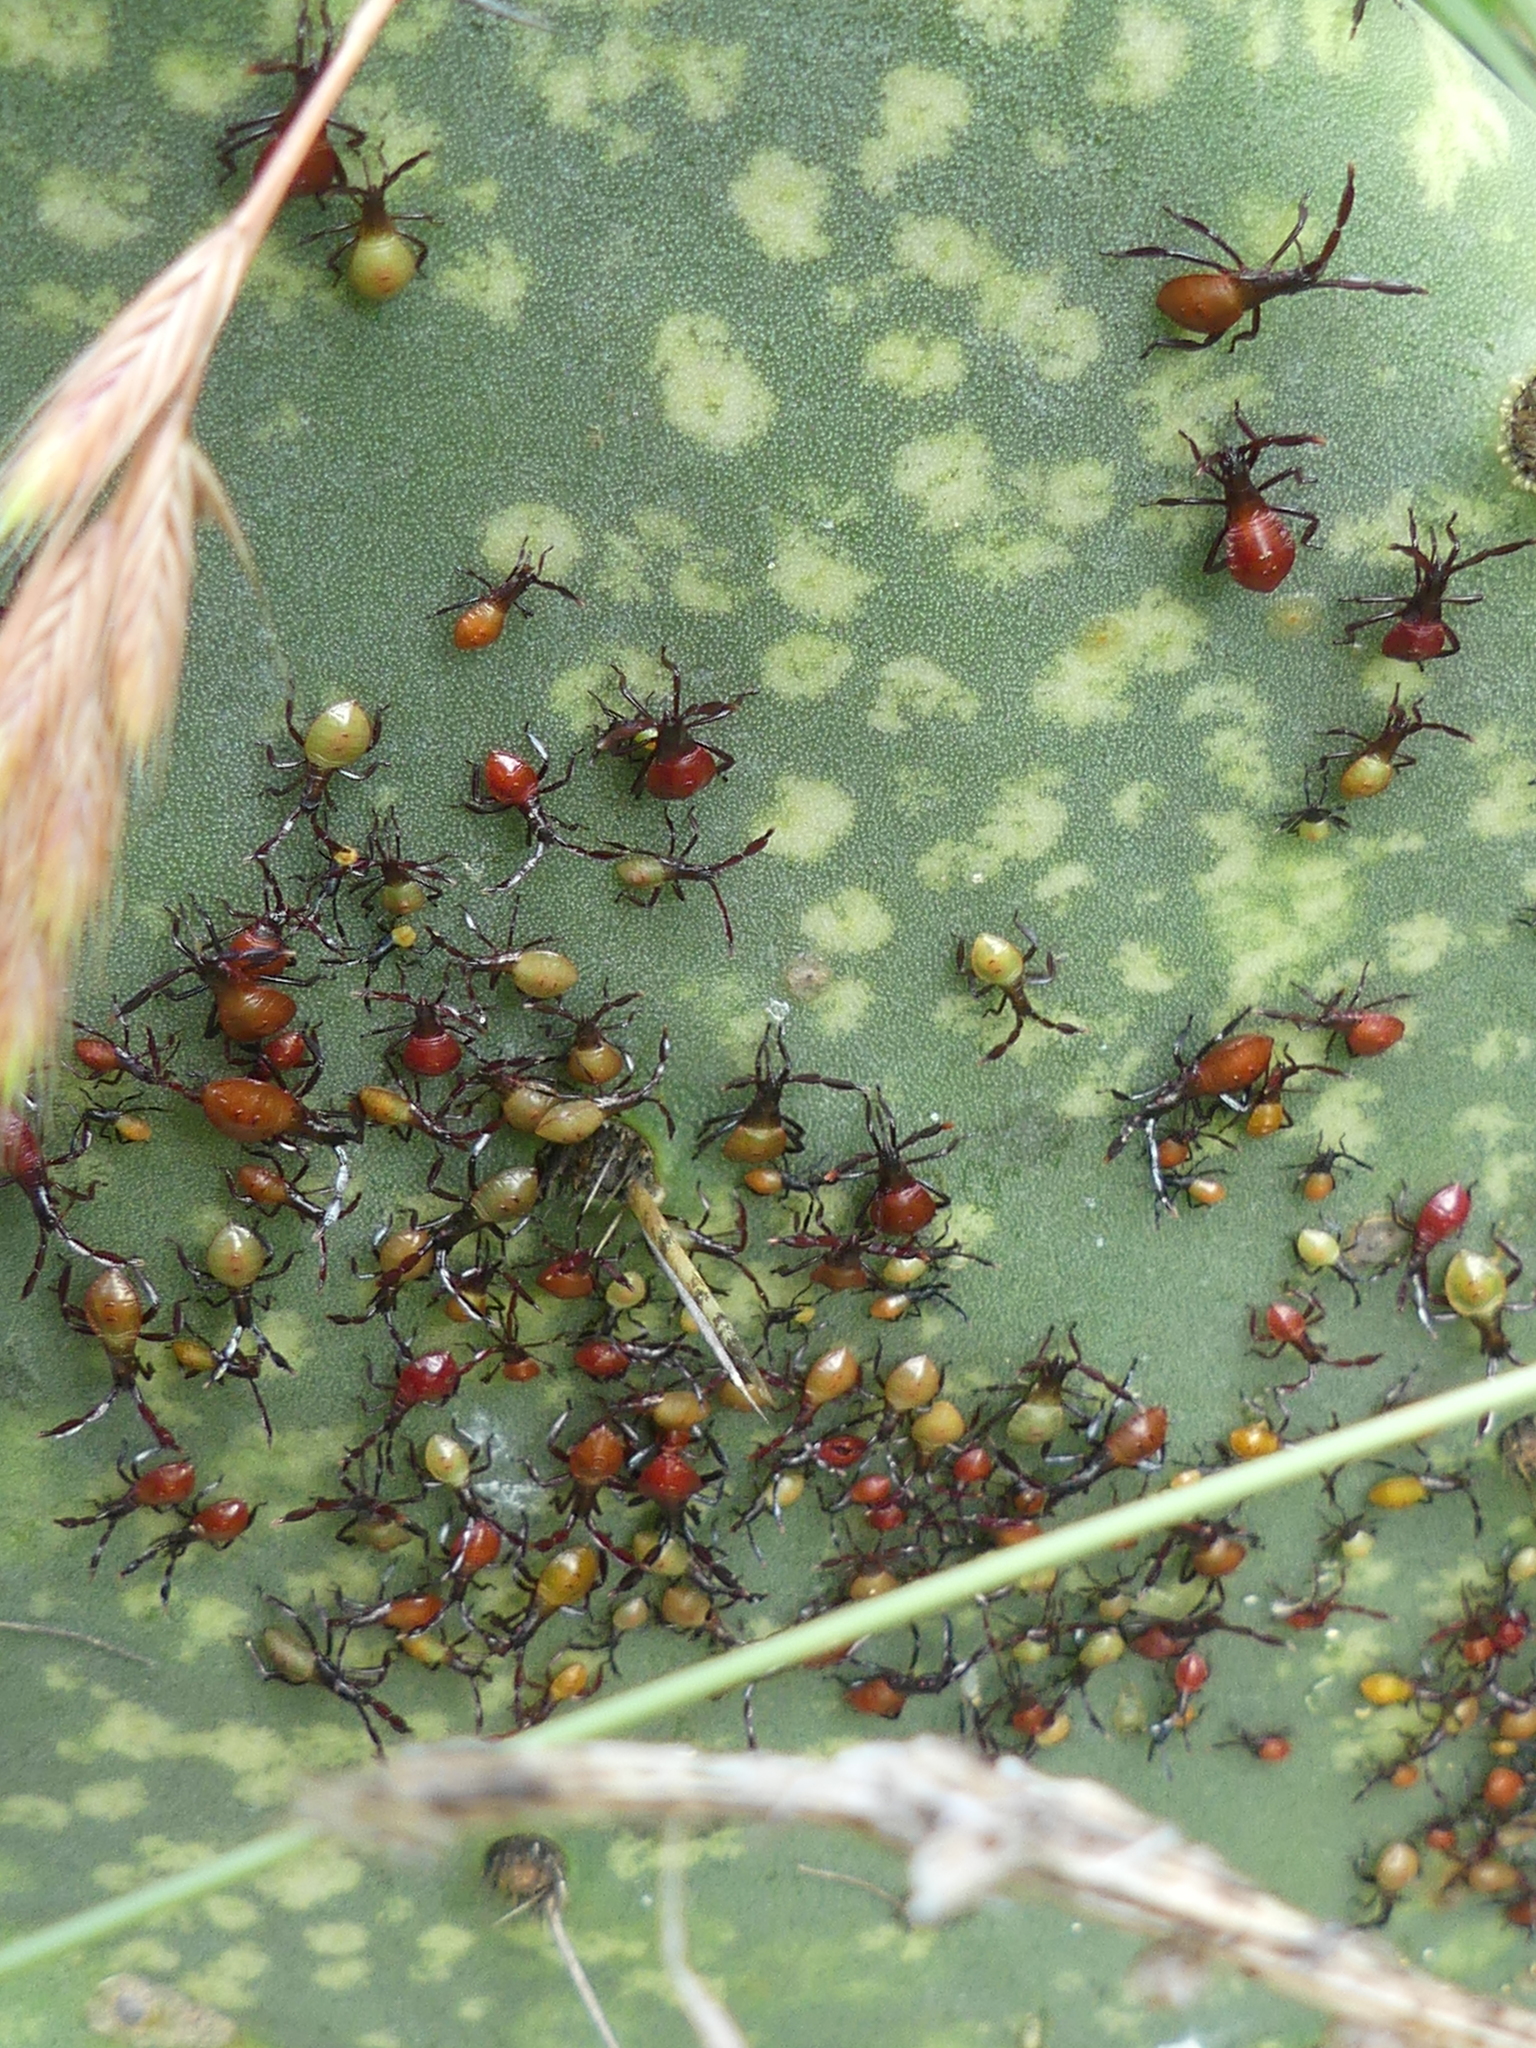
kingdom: Animalia
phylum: Arthropoda
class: Insecta
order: Hemiptera
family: Coreidae
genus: Chelinidea
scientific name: Chelinidea vittiger
